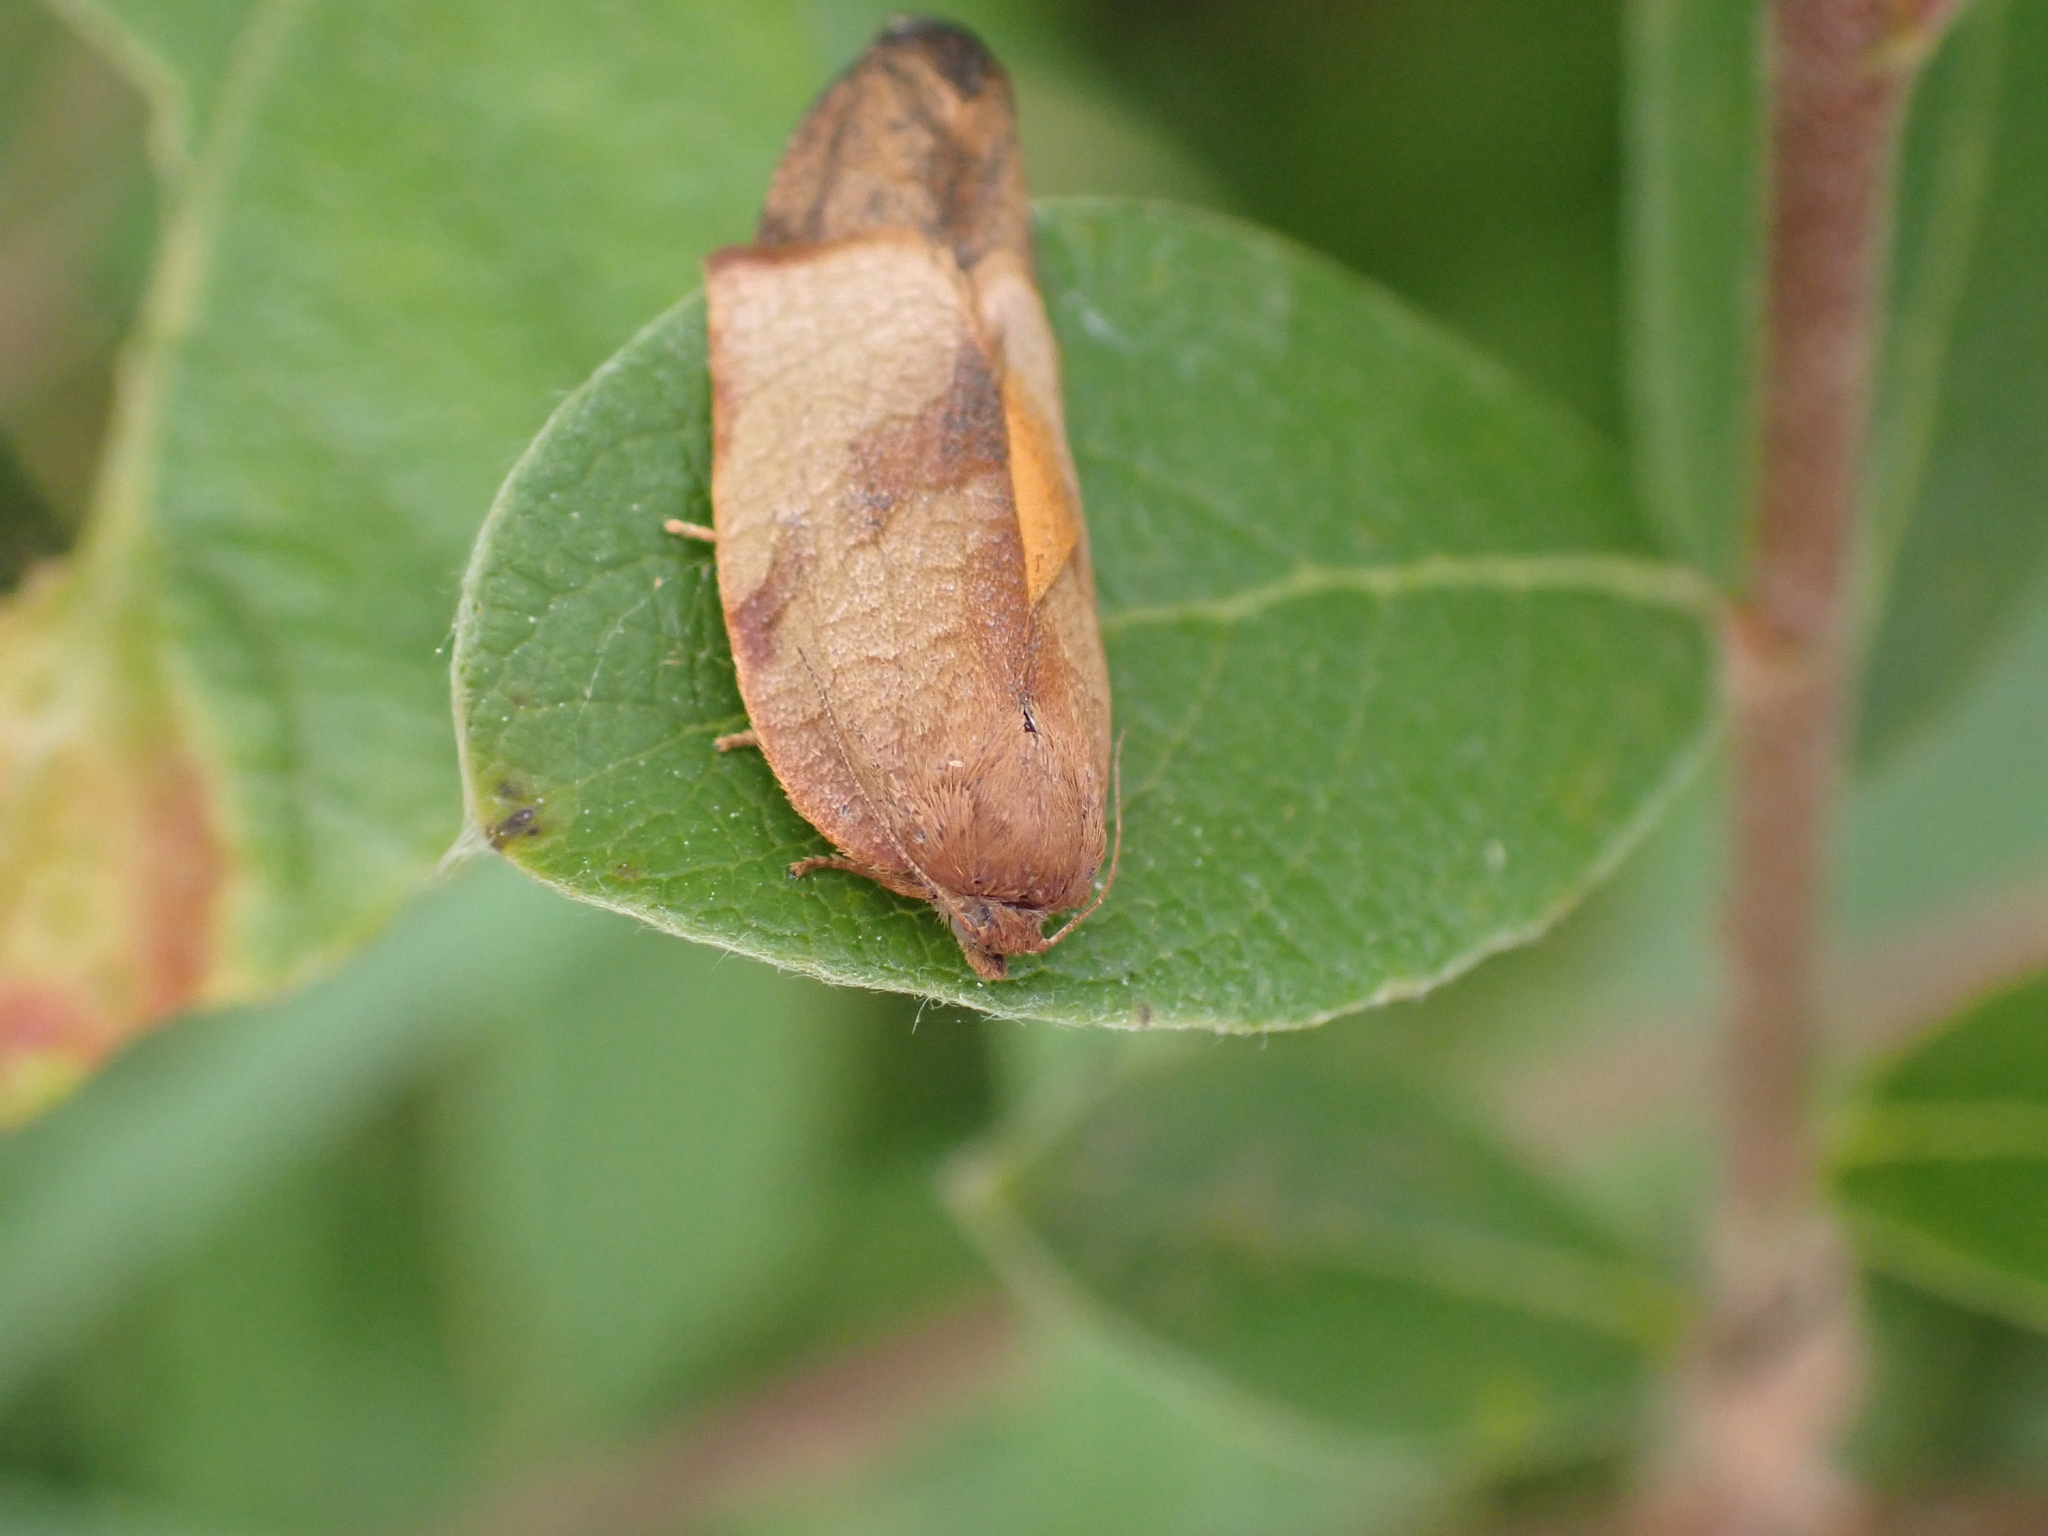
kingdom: Animalia
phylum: Arthropoda
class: Insecta
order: Lepidoptera
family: Tortricidae
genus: Cacoecimorpha
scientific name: Cacoecimorpha pronubana
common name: Carnation tortrix
